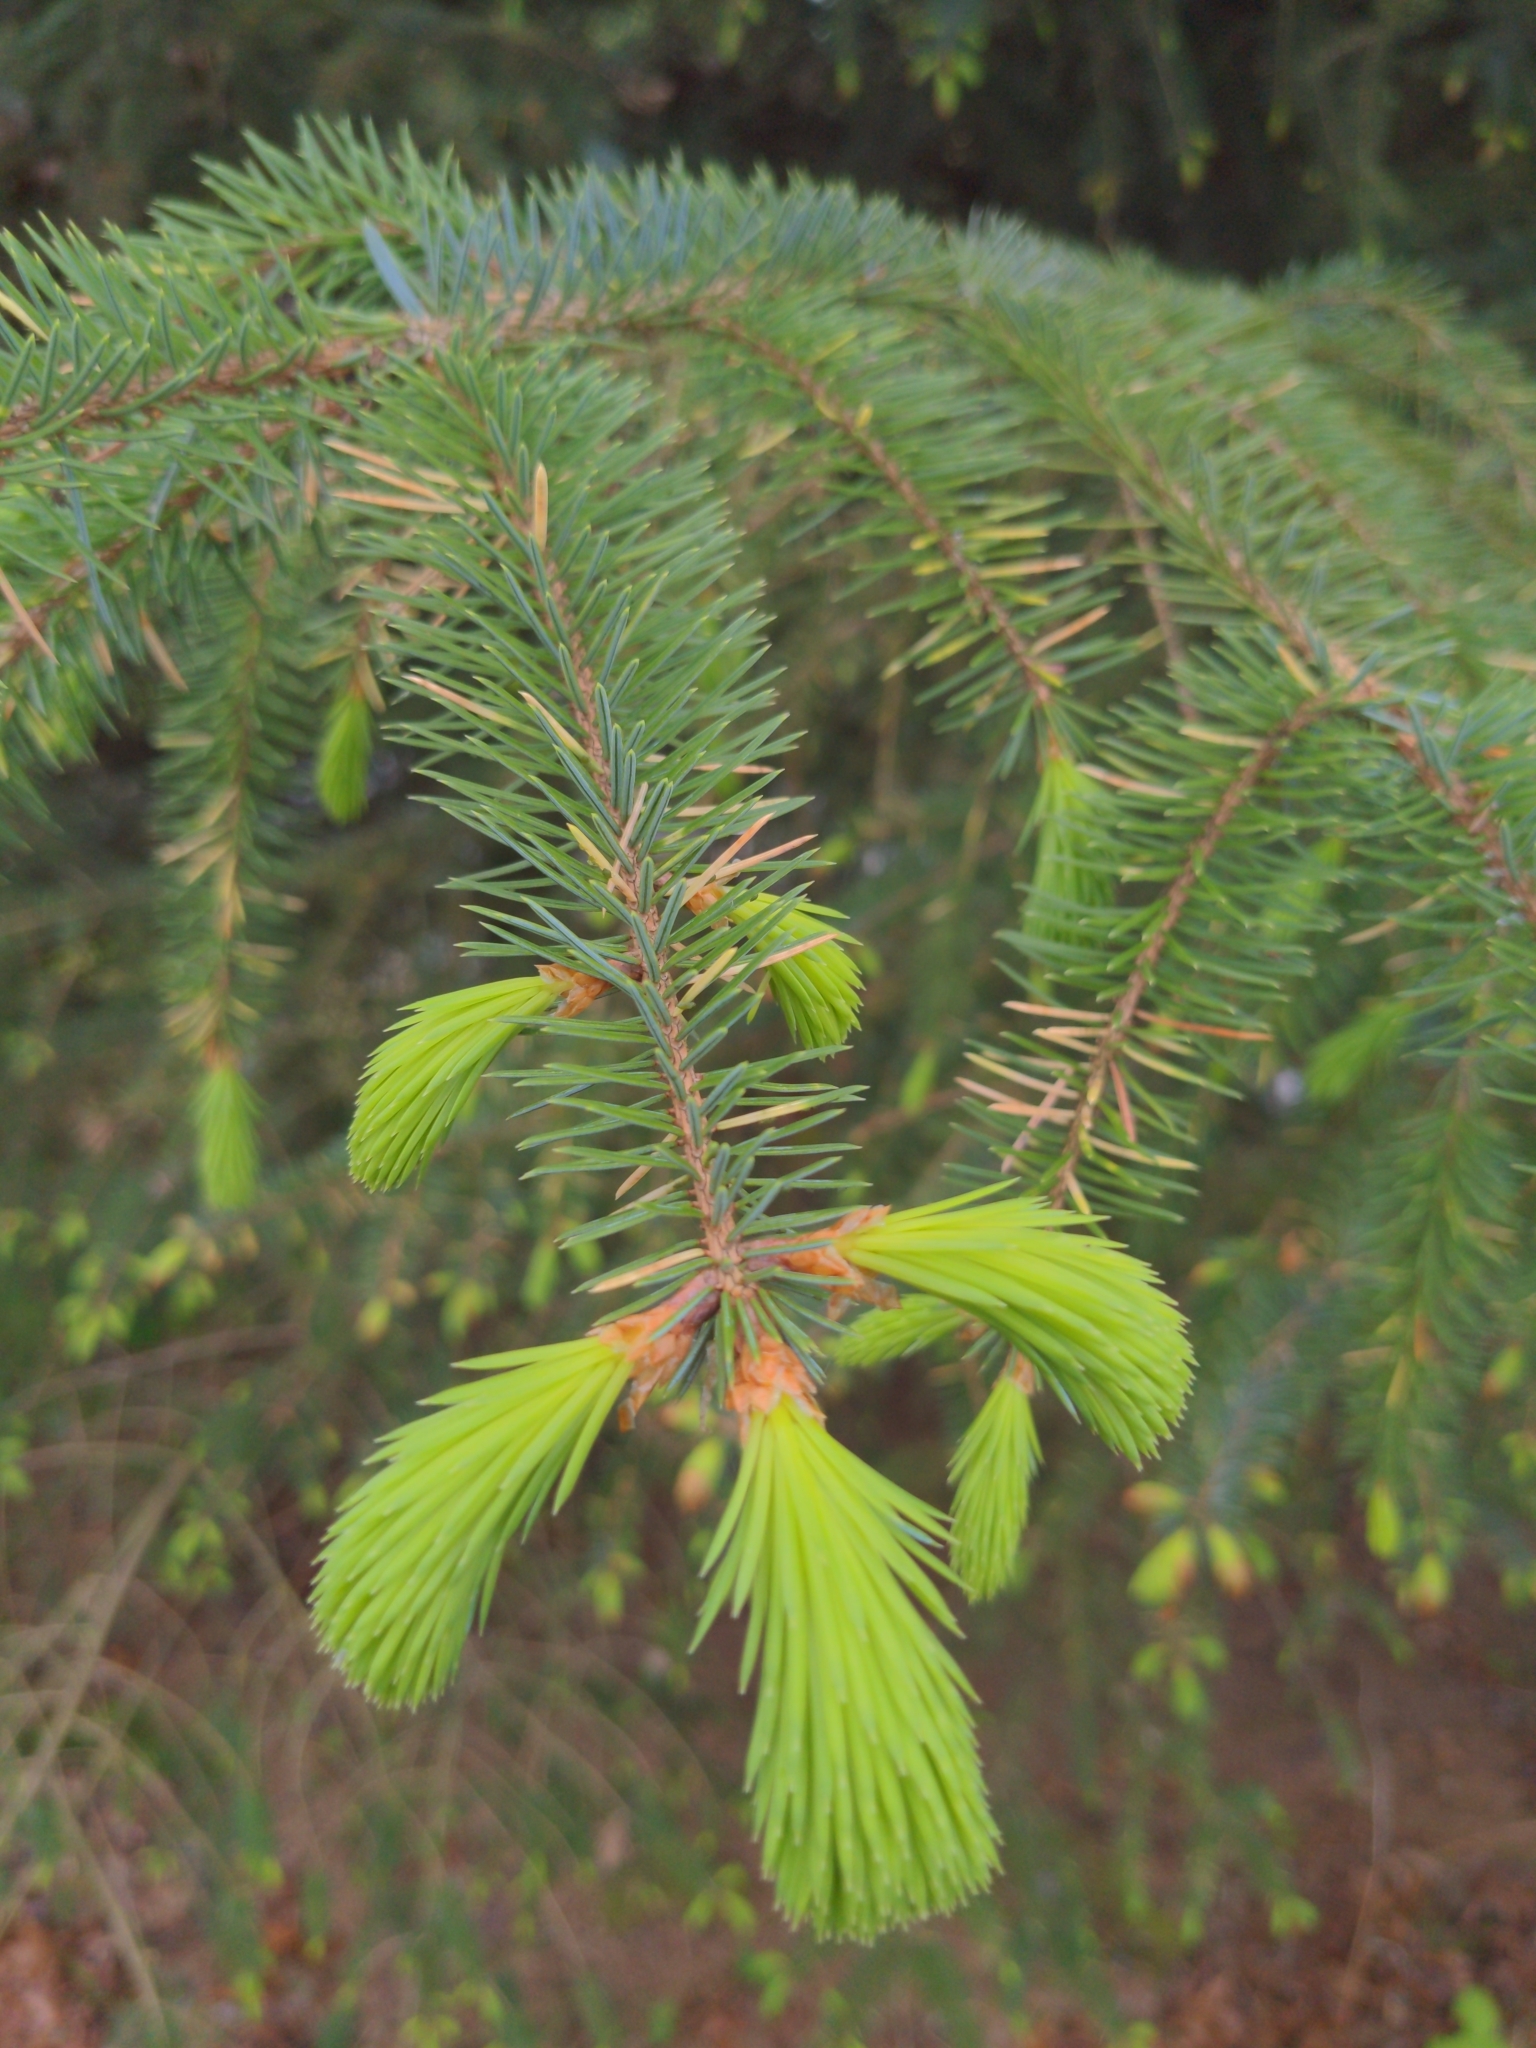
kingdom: Plantae
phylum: Tracheophyta
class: Pinopsida
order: Pinales
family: Pinaceae
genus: Picea
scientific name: Picea sitchensis
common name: Sitka spruce
